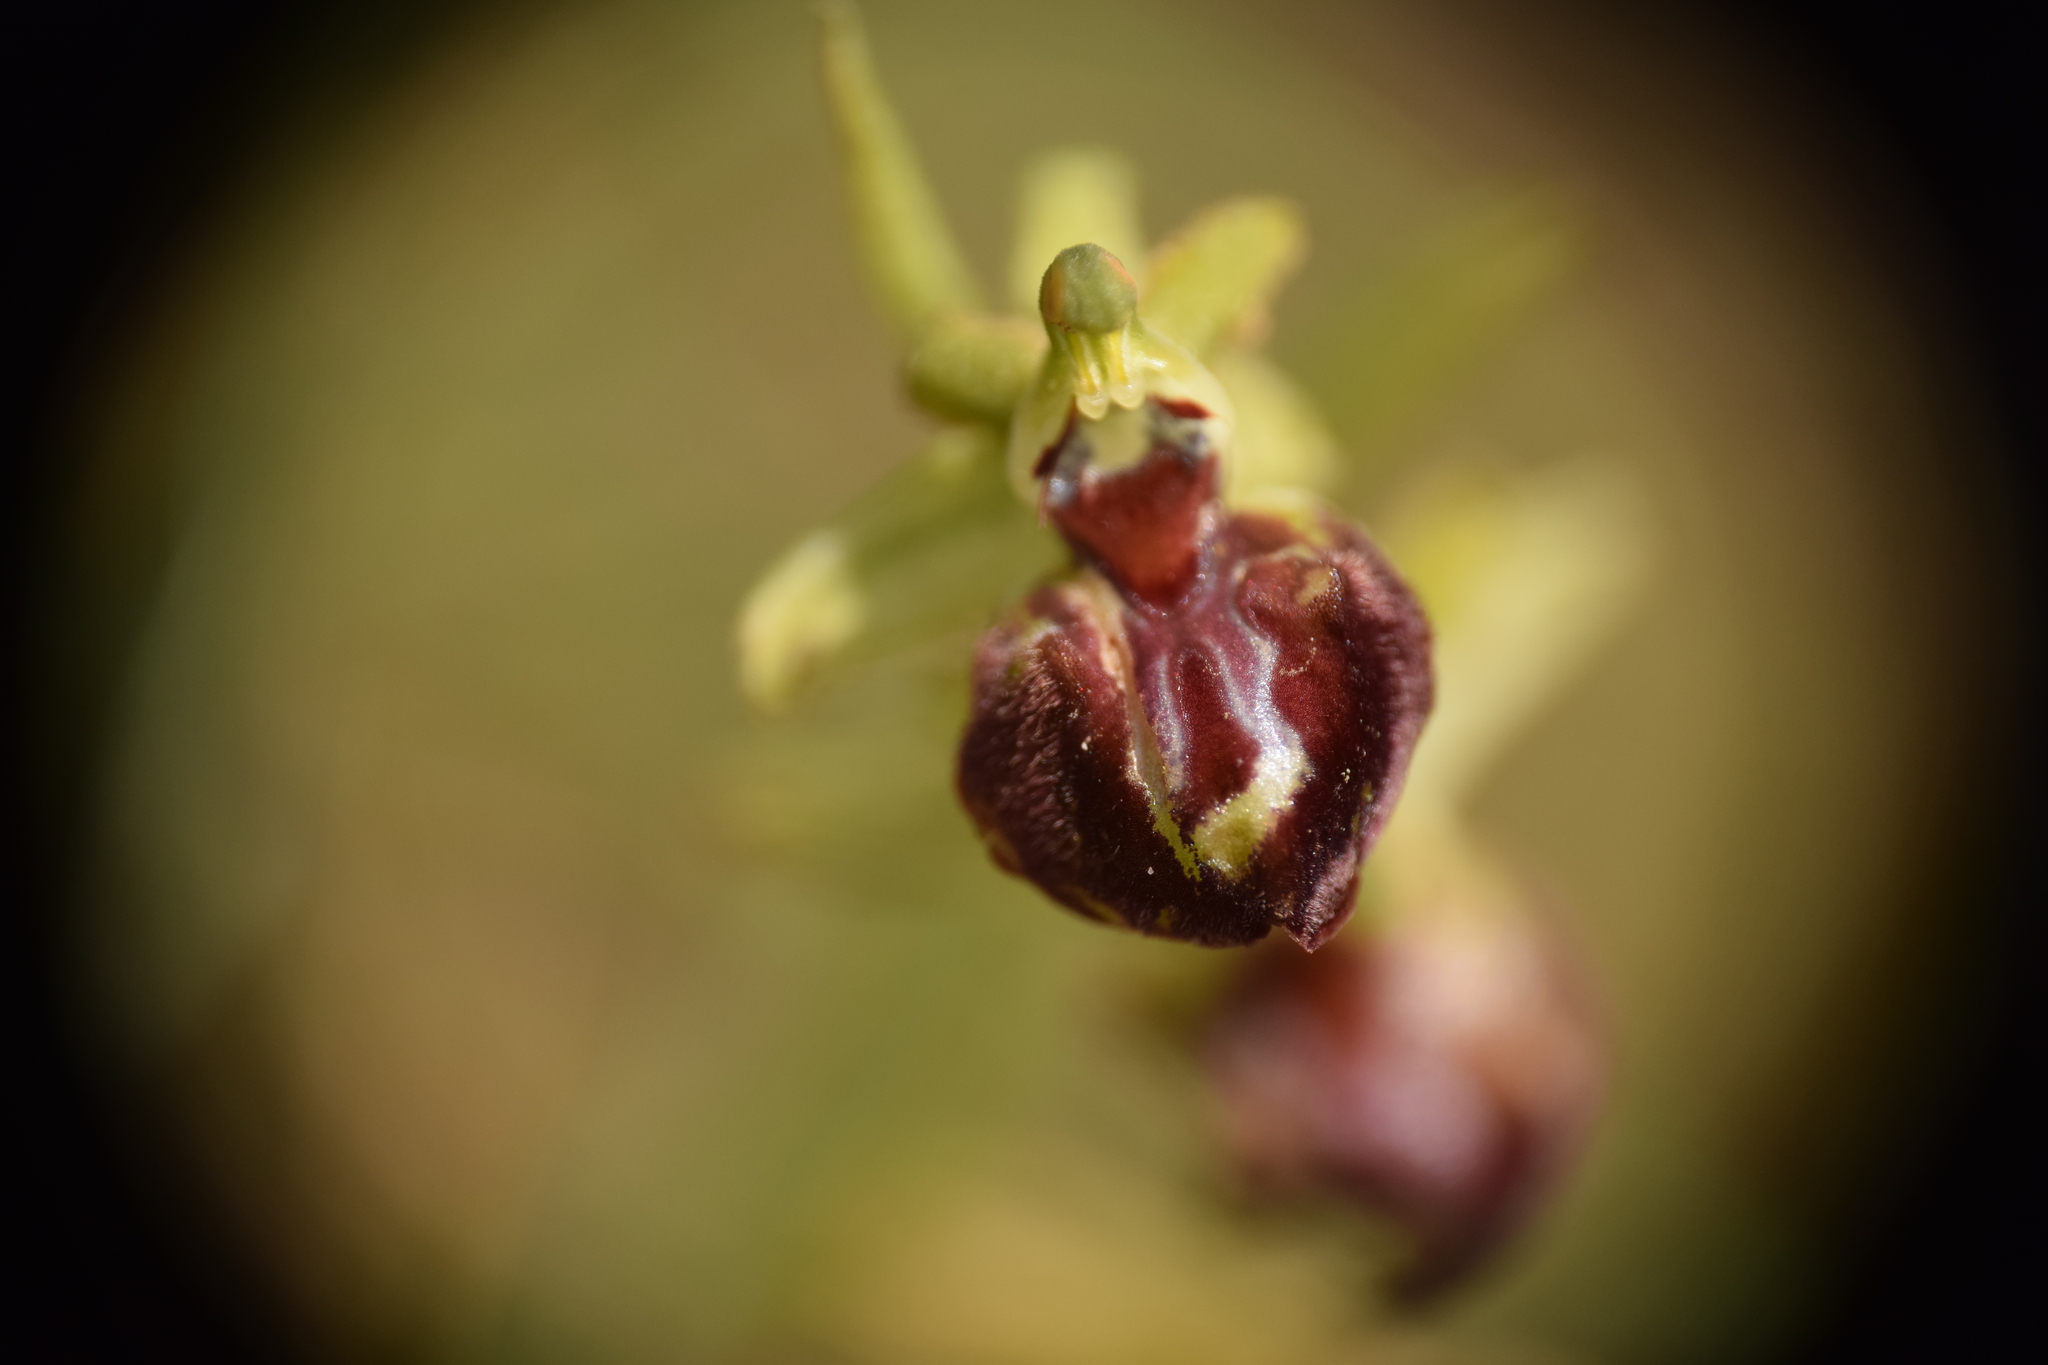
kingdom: Plantae
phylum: Tracheophyta
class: Liliopsida
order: Asparagales
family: Orchidaceae
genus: Ophrys
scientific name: Ophrys sphegodes
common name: Early spider-orchid
